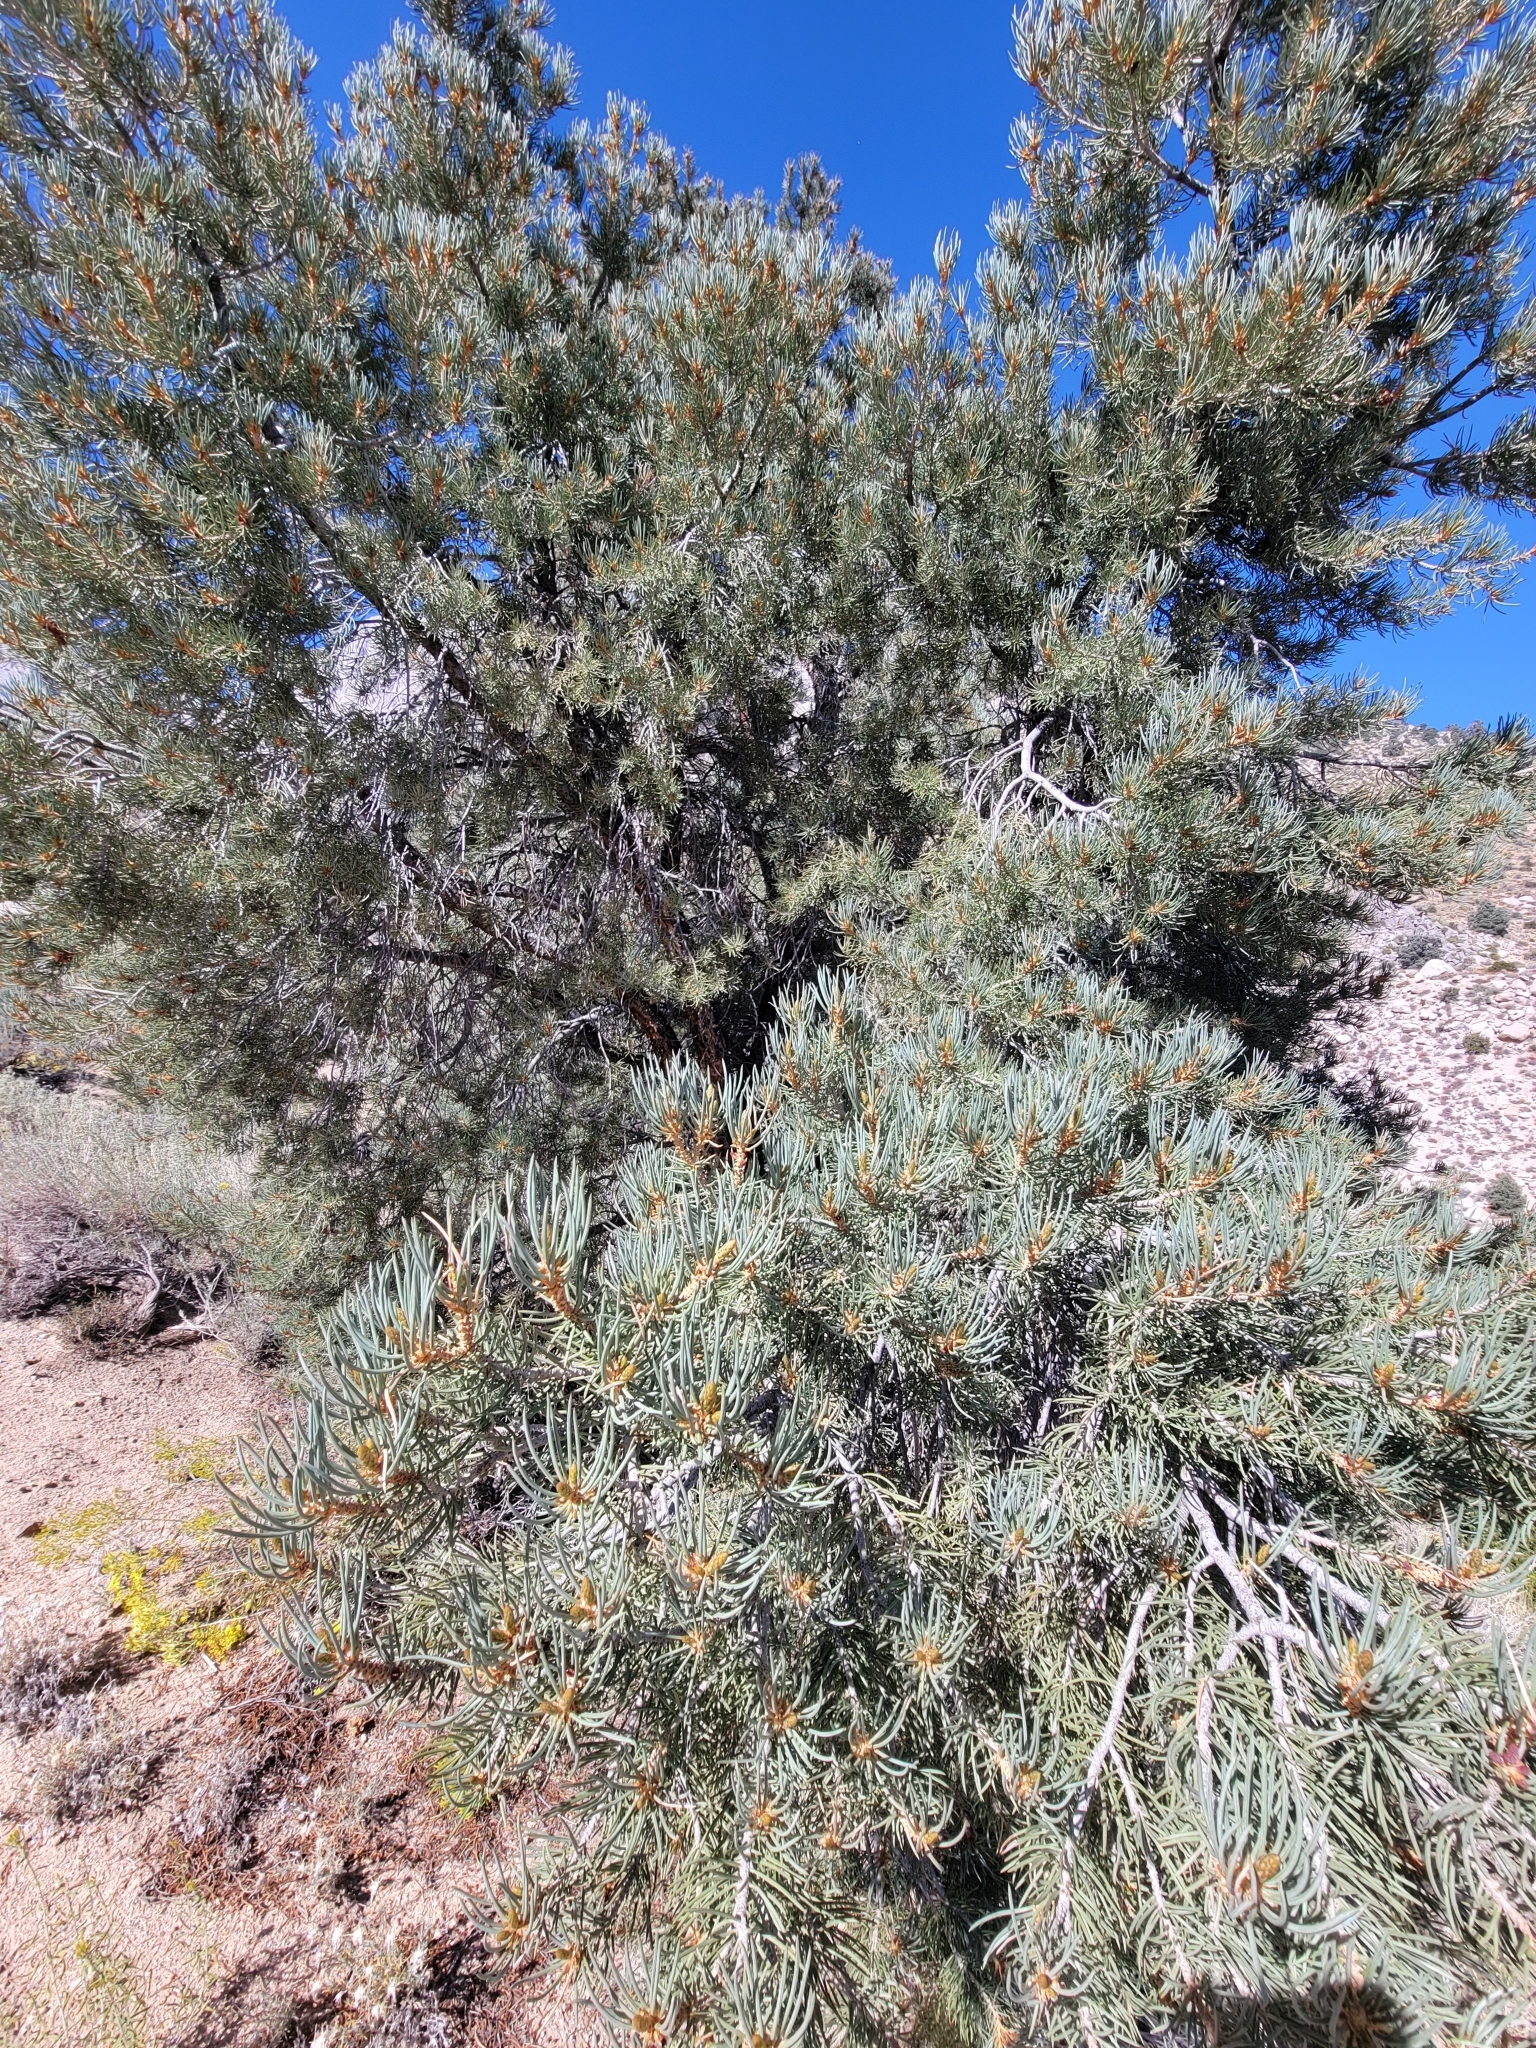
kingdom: Plantae
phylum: Tracheophyta
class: Pinopsida
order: Pinales
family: Pinaceae
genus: Pinus
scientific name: Pinus monophylla
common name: One-leaved nut pine
